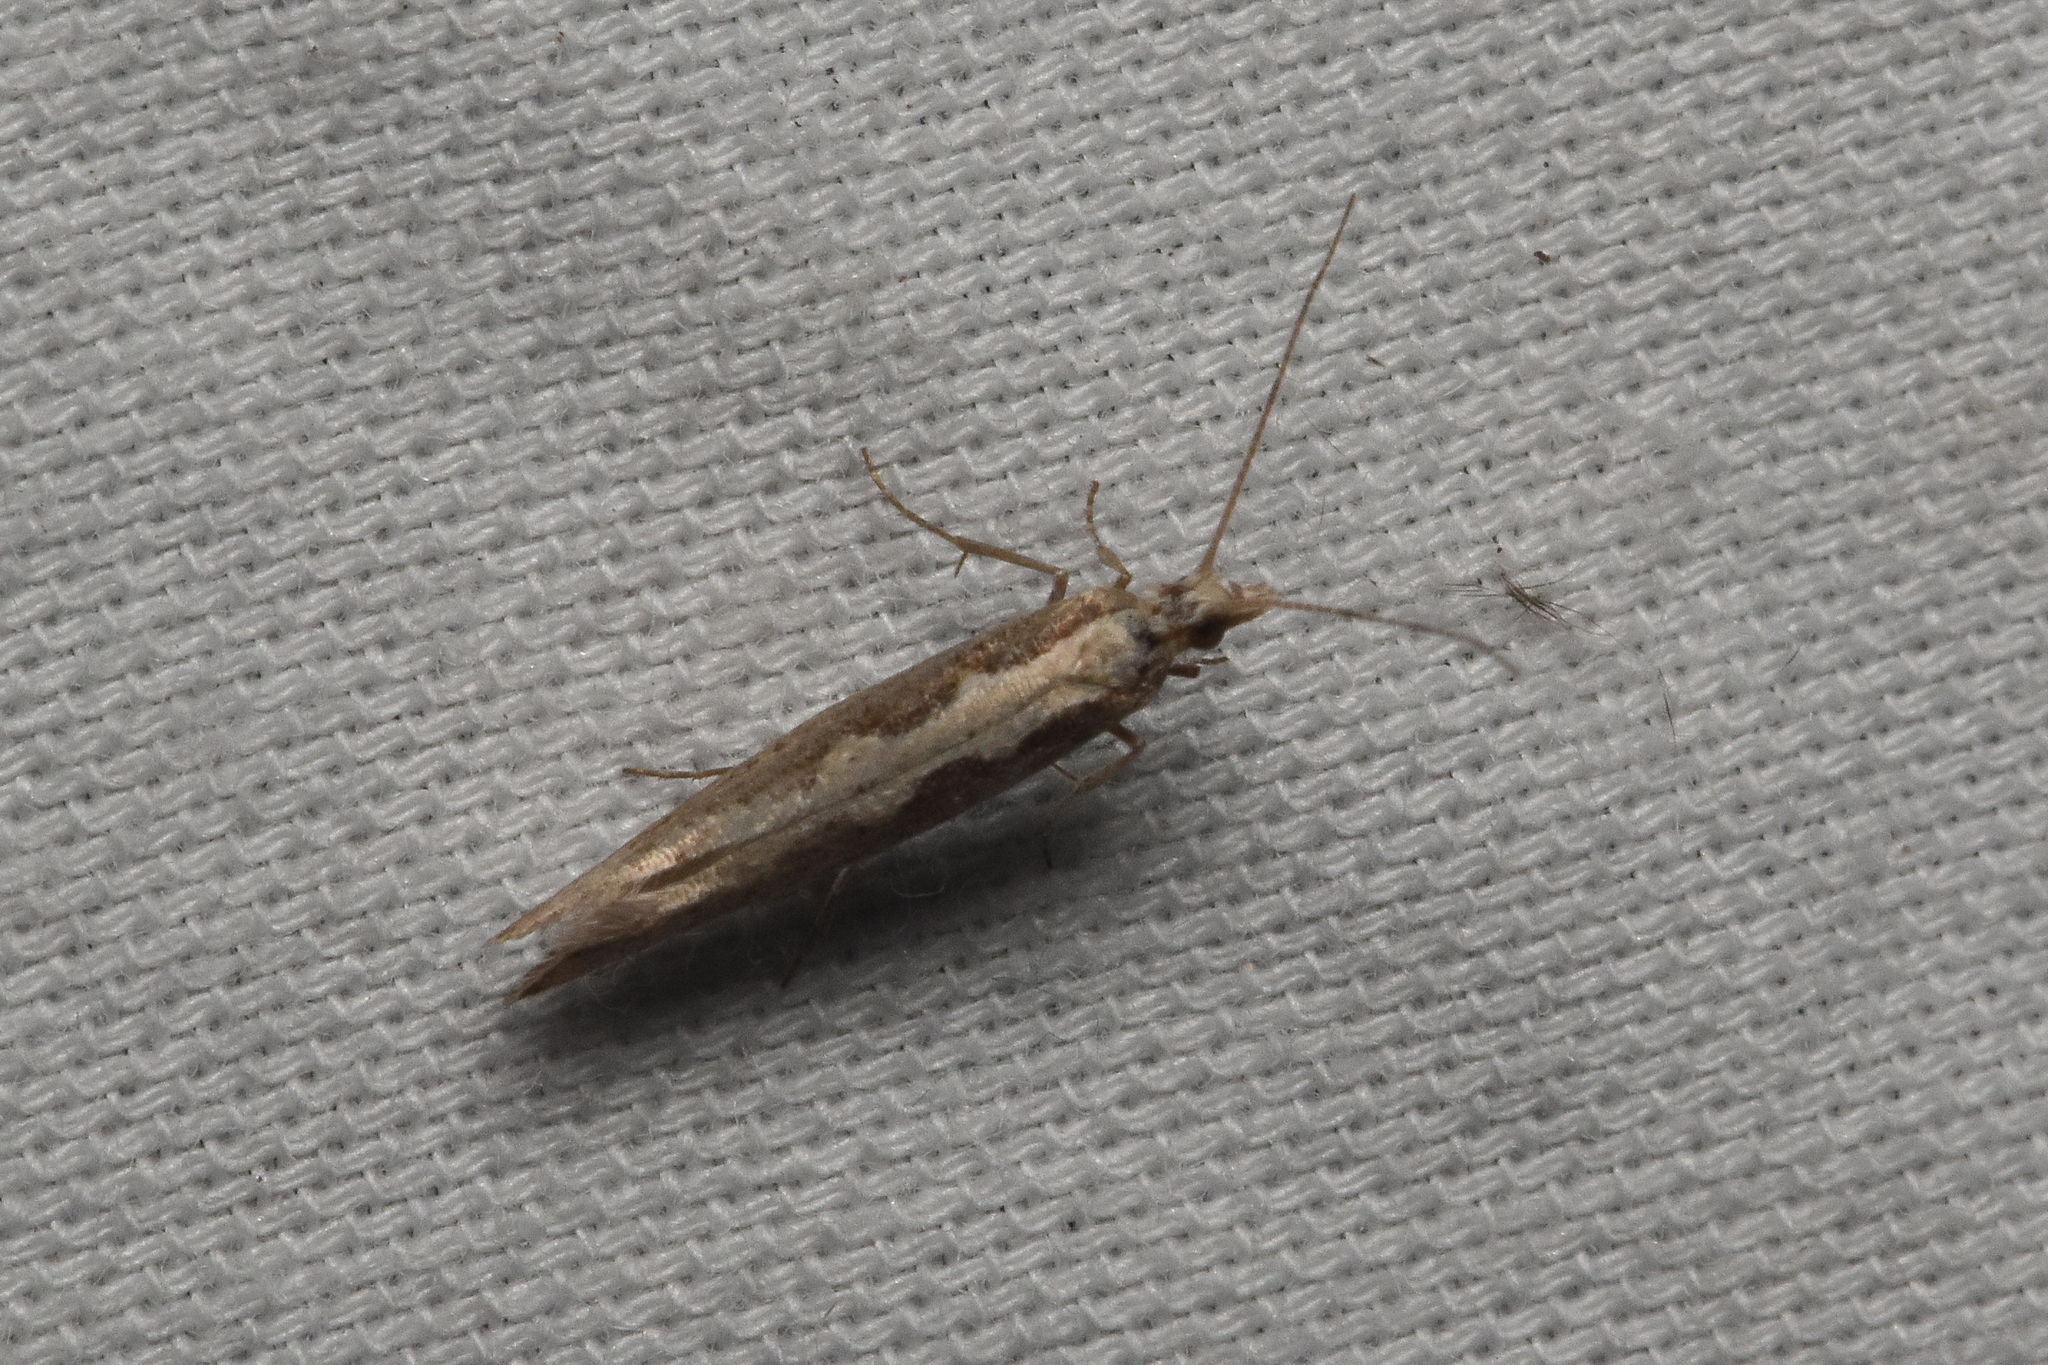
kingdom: Animalia
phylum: Arthropoda
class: Insecta
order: Lepidoptera
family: Plutellidae
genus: Plutella
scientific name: Plutella xylostella
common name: Diamond-back moth
